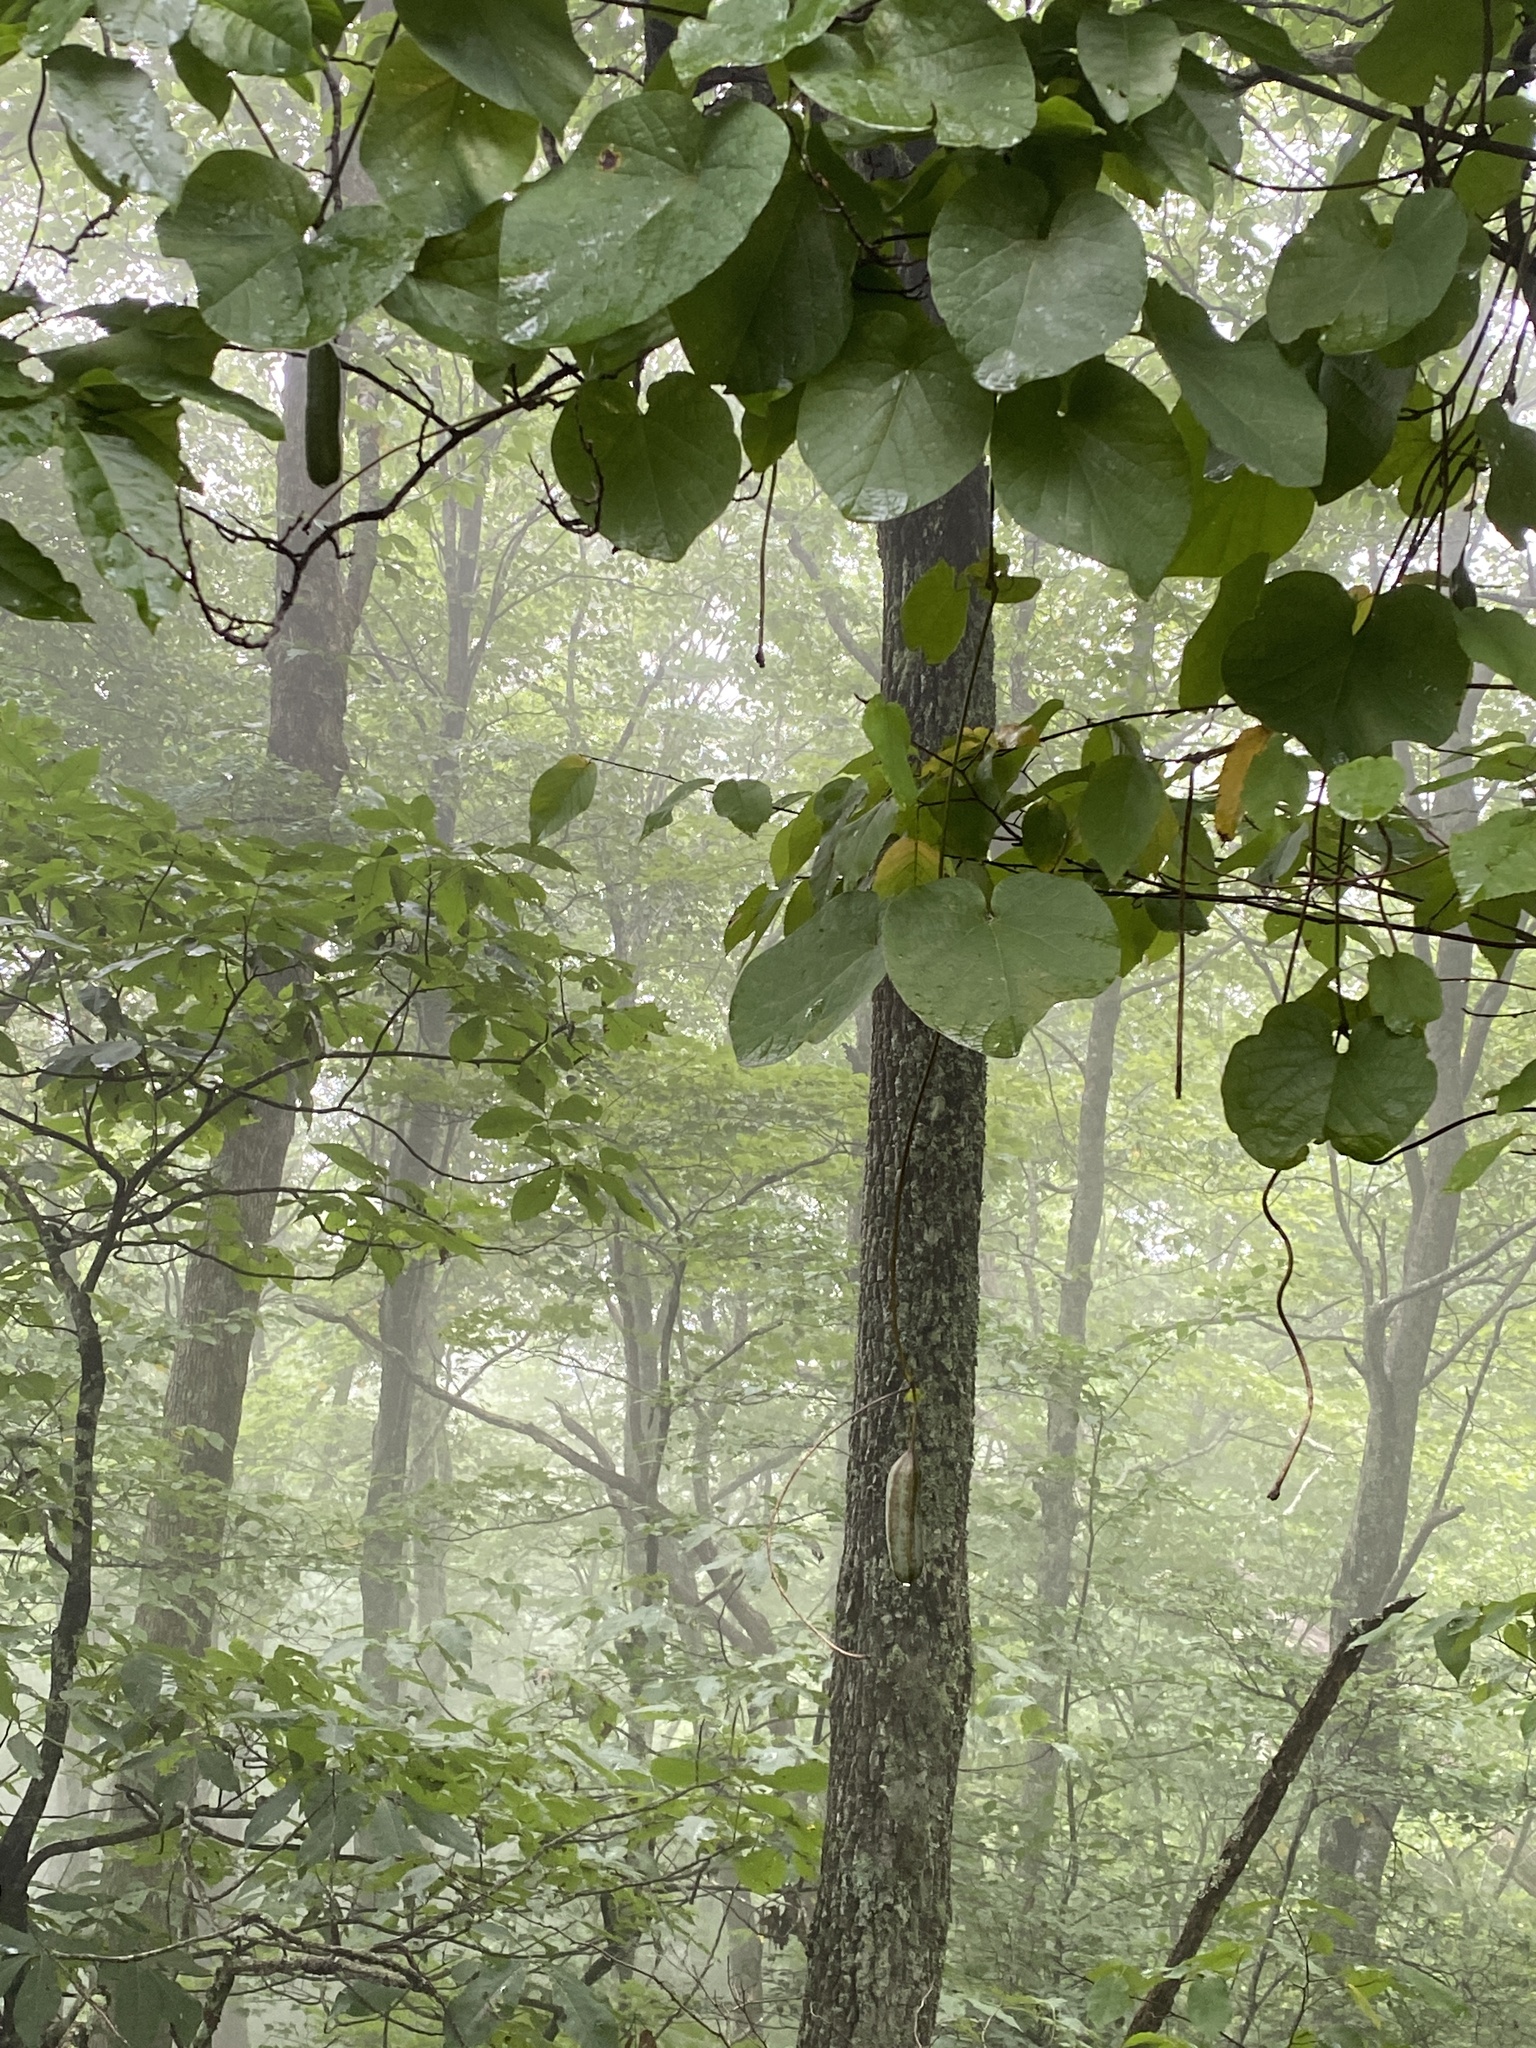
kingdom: Plantae
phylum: Tracheophyta
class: Magnoliopsida
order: Piperales
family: Aristolochiaceae
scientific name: Aristolochiaceae
